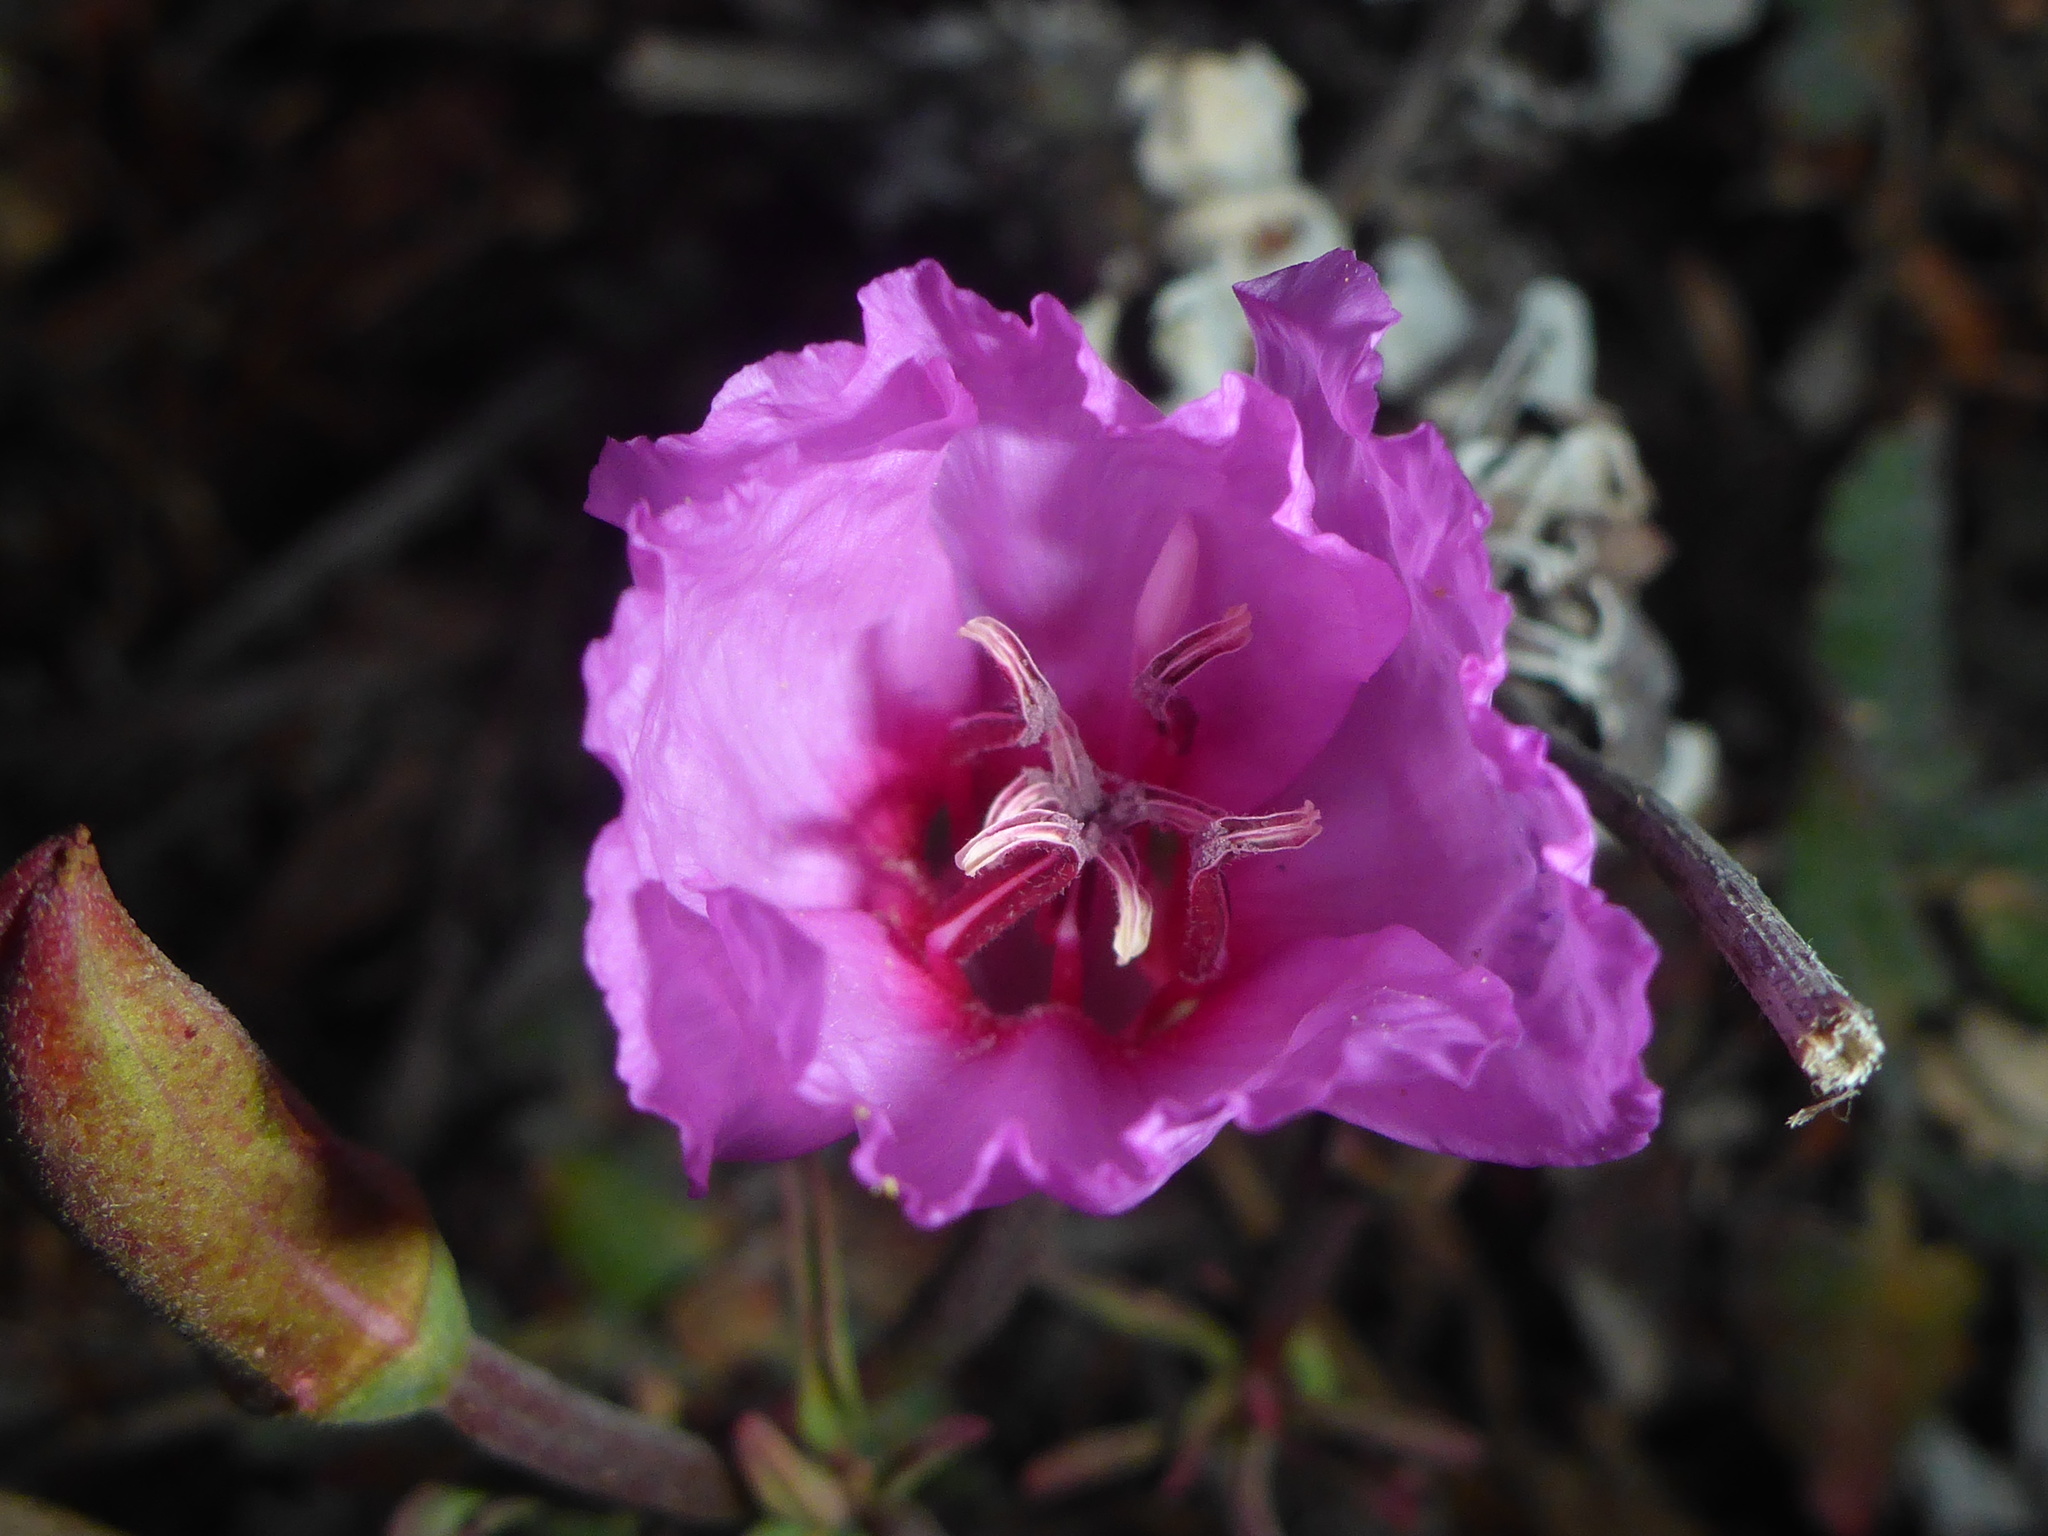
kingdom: Plantae
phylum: Tracheophyta
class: Magnoliopsida
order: Myrtales
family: Onagraceae
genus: Clarkia
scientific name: Clarkia rubicunda
